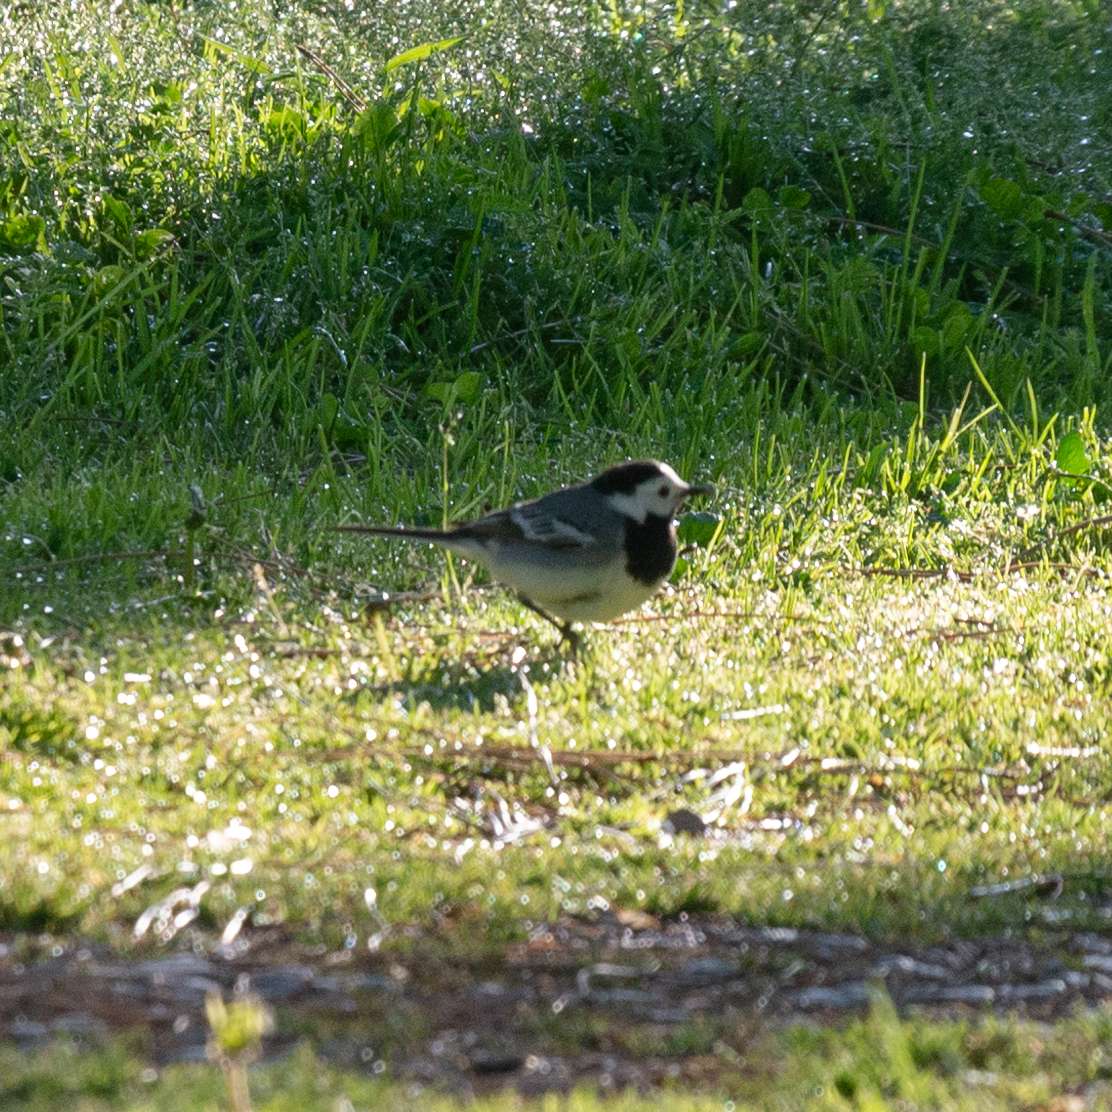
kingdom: Animalia
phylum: Chordata
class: Aves
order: Passeriformes
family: Motacillidae
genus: Motacilla
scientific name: Motacilla alba
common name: White wagtail
